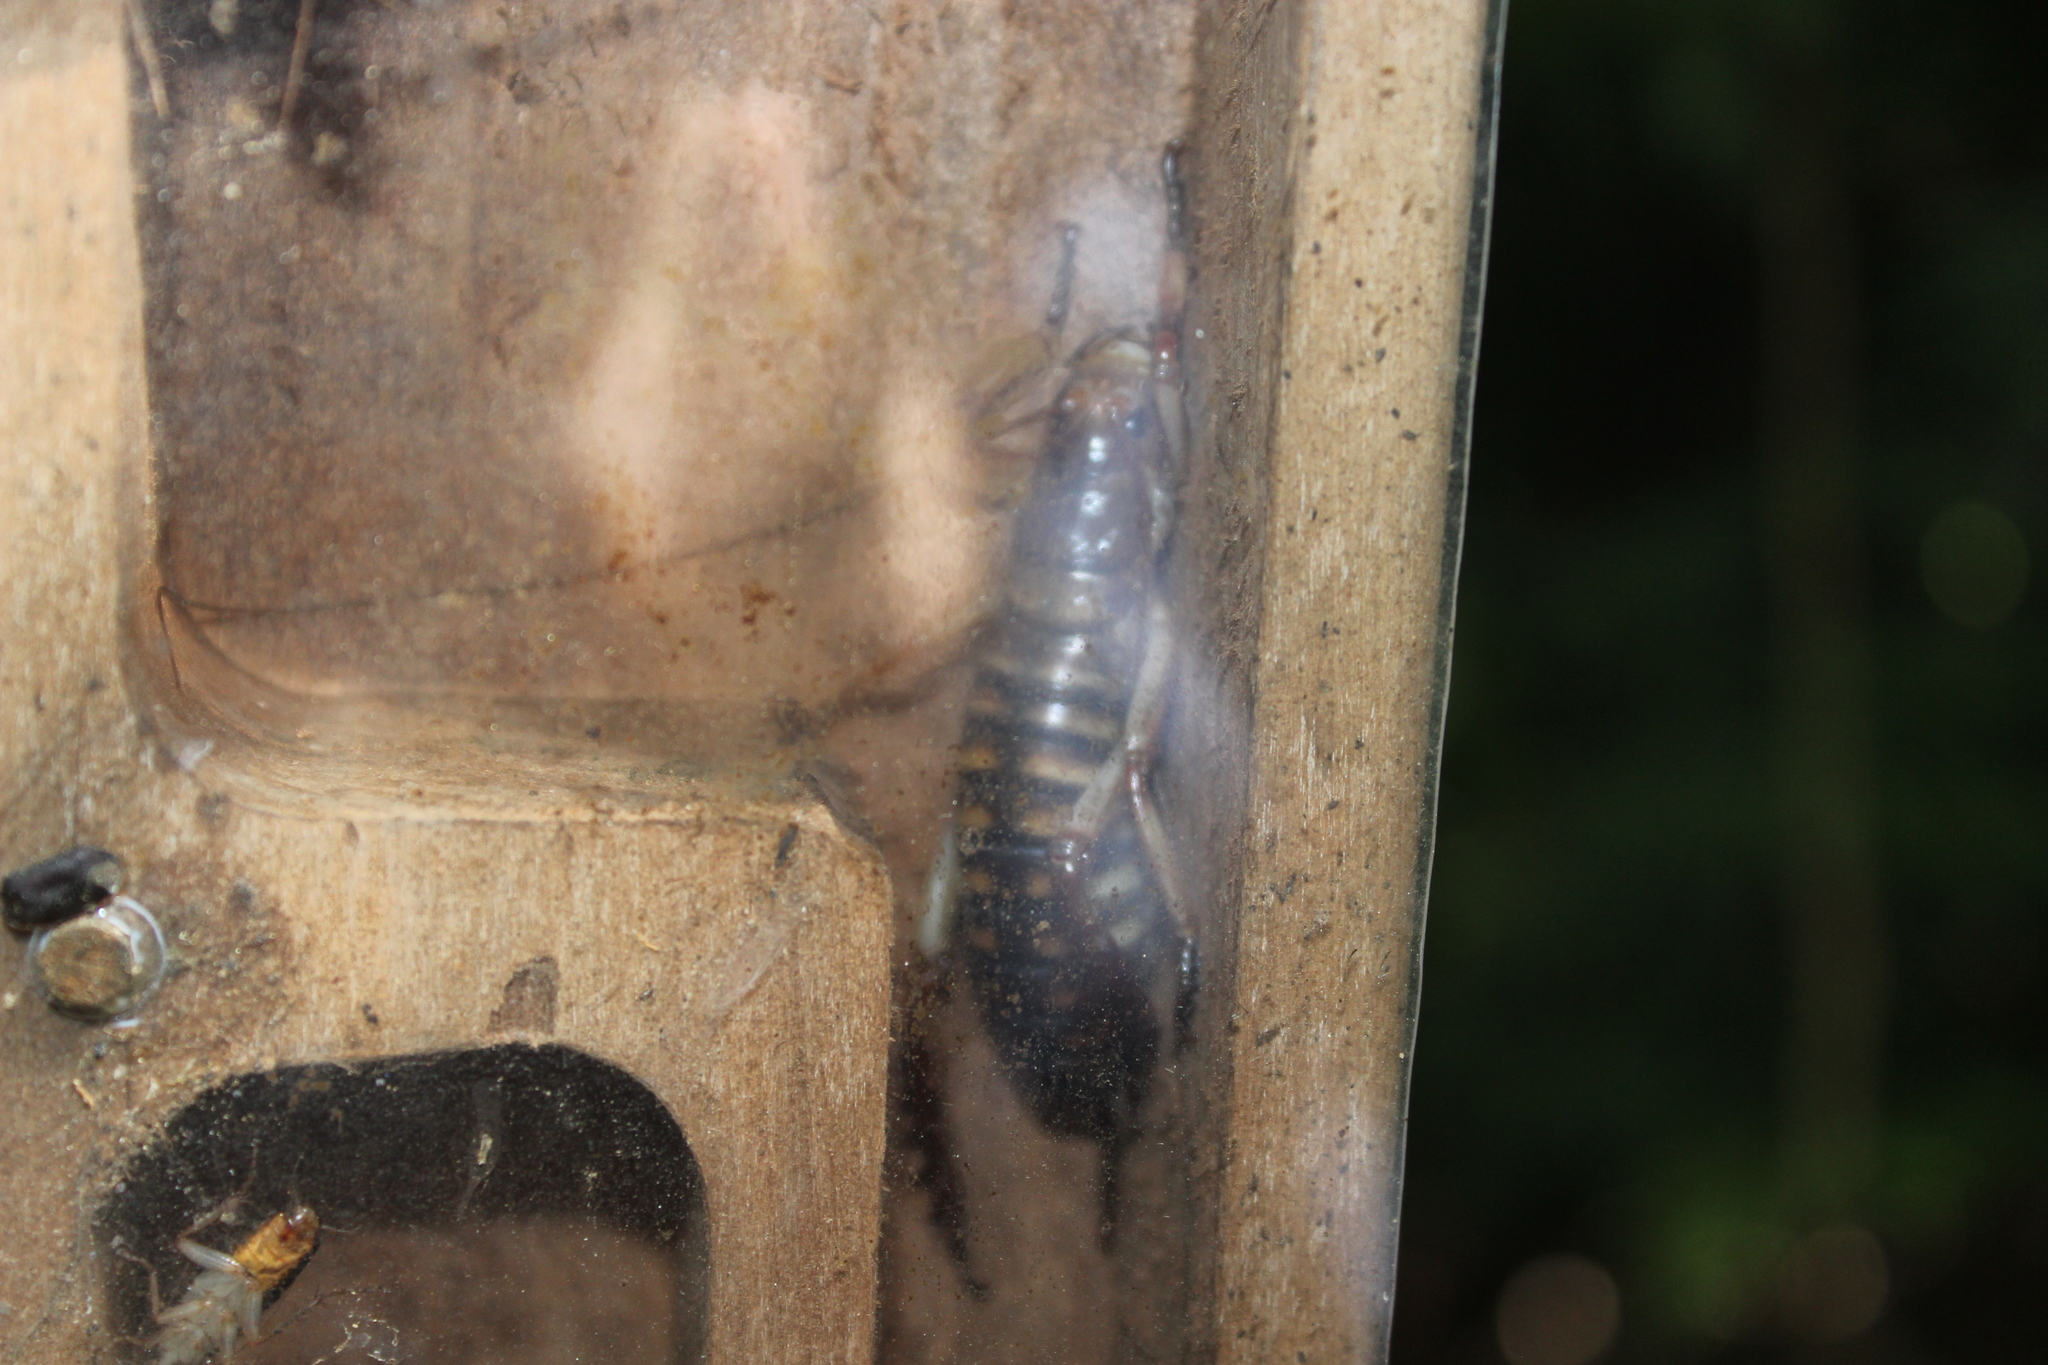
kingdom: Animalia
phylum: Arthropoda
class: Insecta
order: Orthoptera
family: Anostostomatidae
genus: Hemideina
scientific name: Hemideina crassidens
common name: Wellington tree weta
